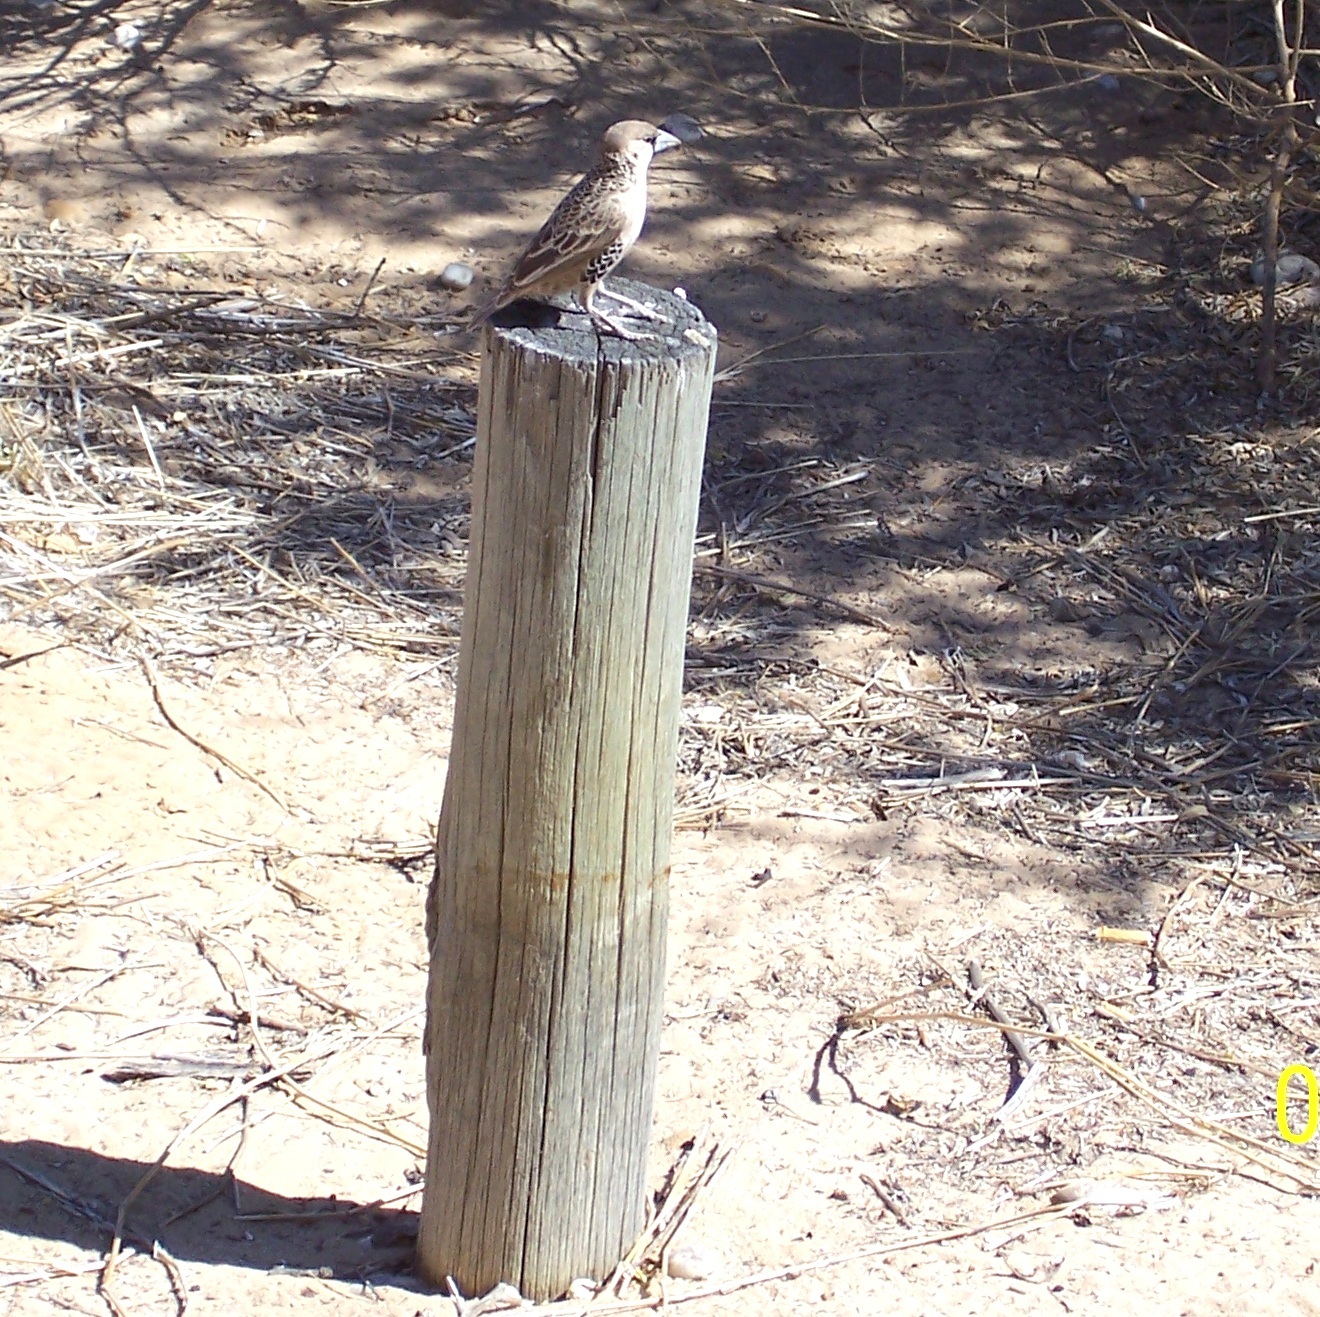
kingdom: Animalia
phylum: Chordata
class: Aves
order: Passeriformes
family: Passeridae
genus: Philetairus
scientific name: Philetairus socius
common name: Sociable weaver
